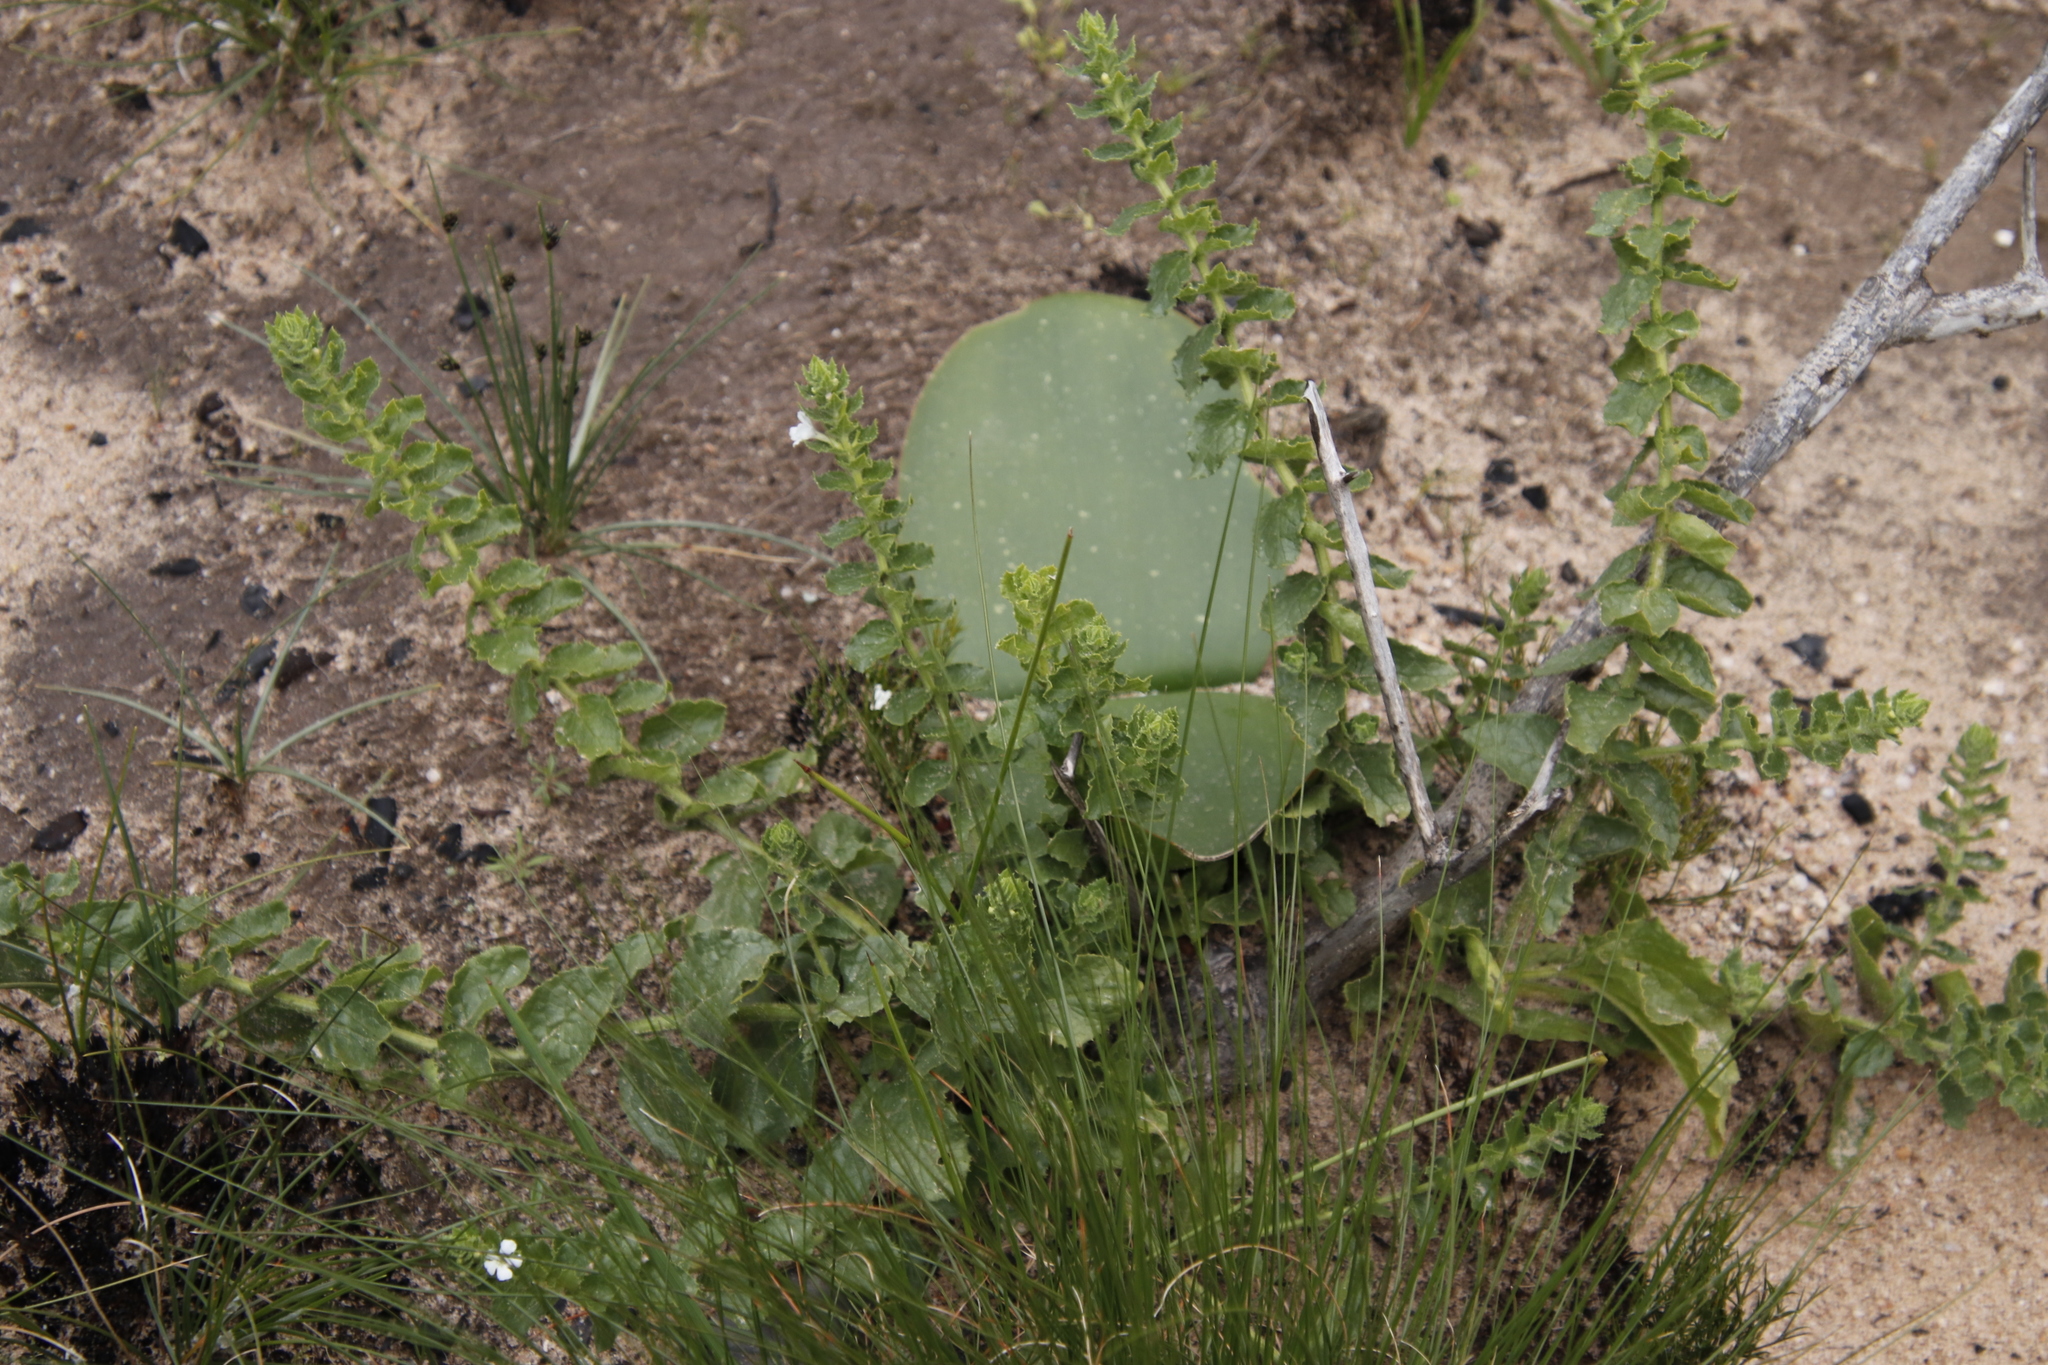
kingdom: Plantae
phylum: Tracheophyta
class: Magnoliopsida
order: Lamiales
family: Scrophulariaceae
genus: Oftia
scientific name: Oftia africana
